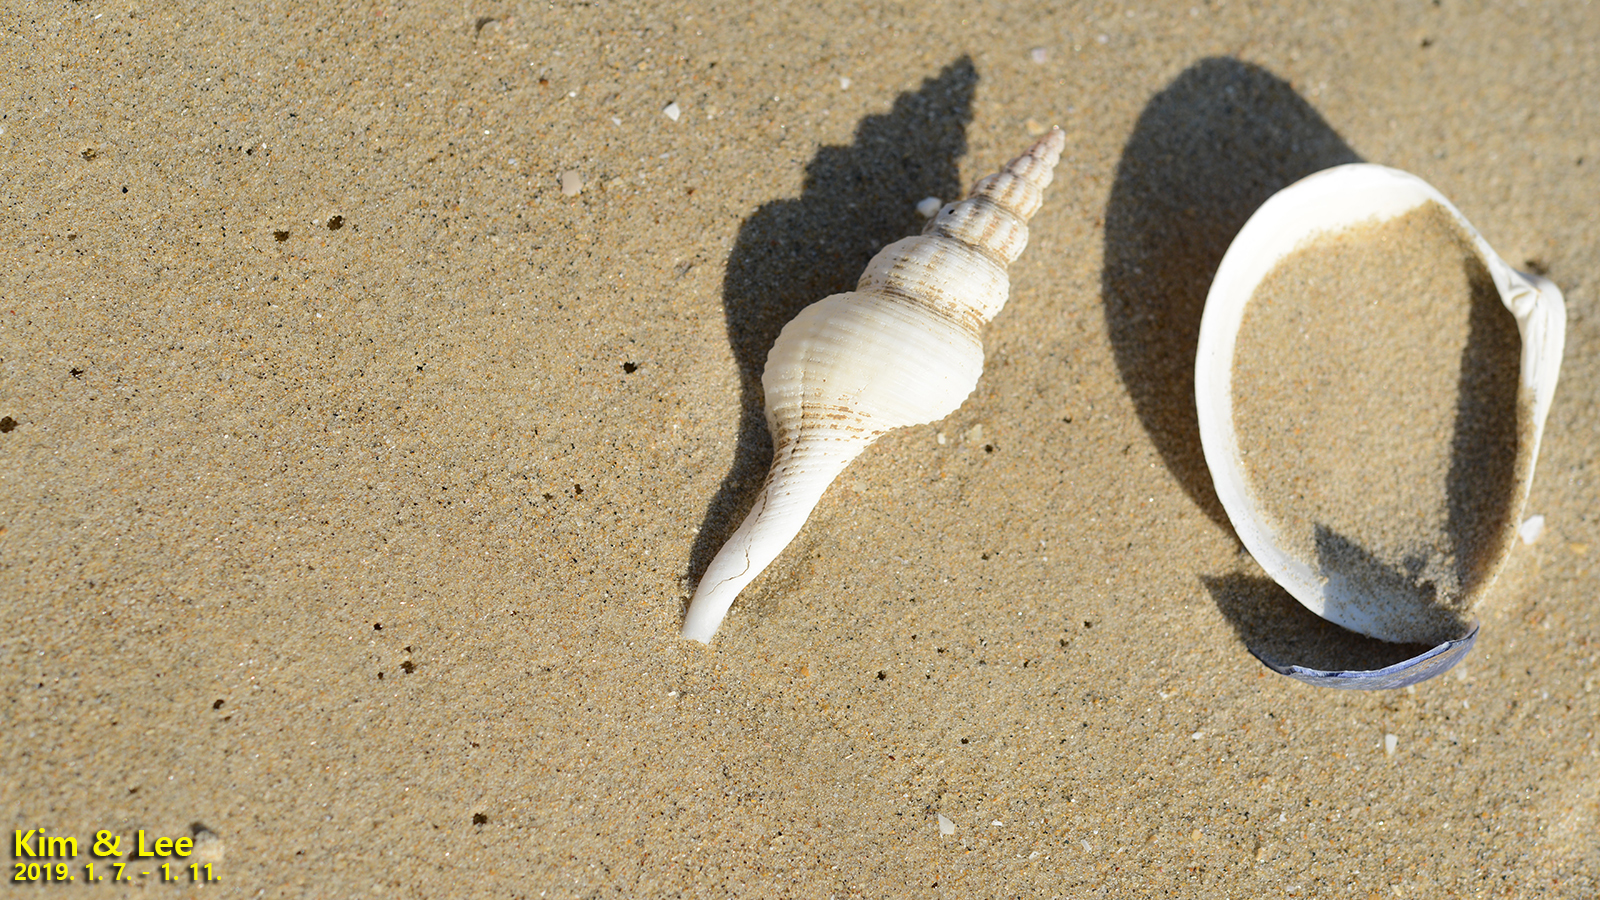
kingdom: Animalia
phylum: Mollusca
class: Gastropoda
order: Neogastropoda
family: Fasciolariidae
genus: Fusinus
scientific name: Fusinus ferrugineus
